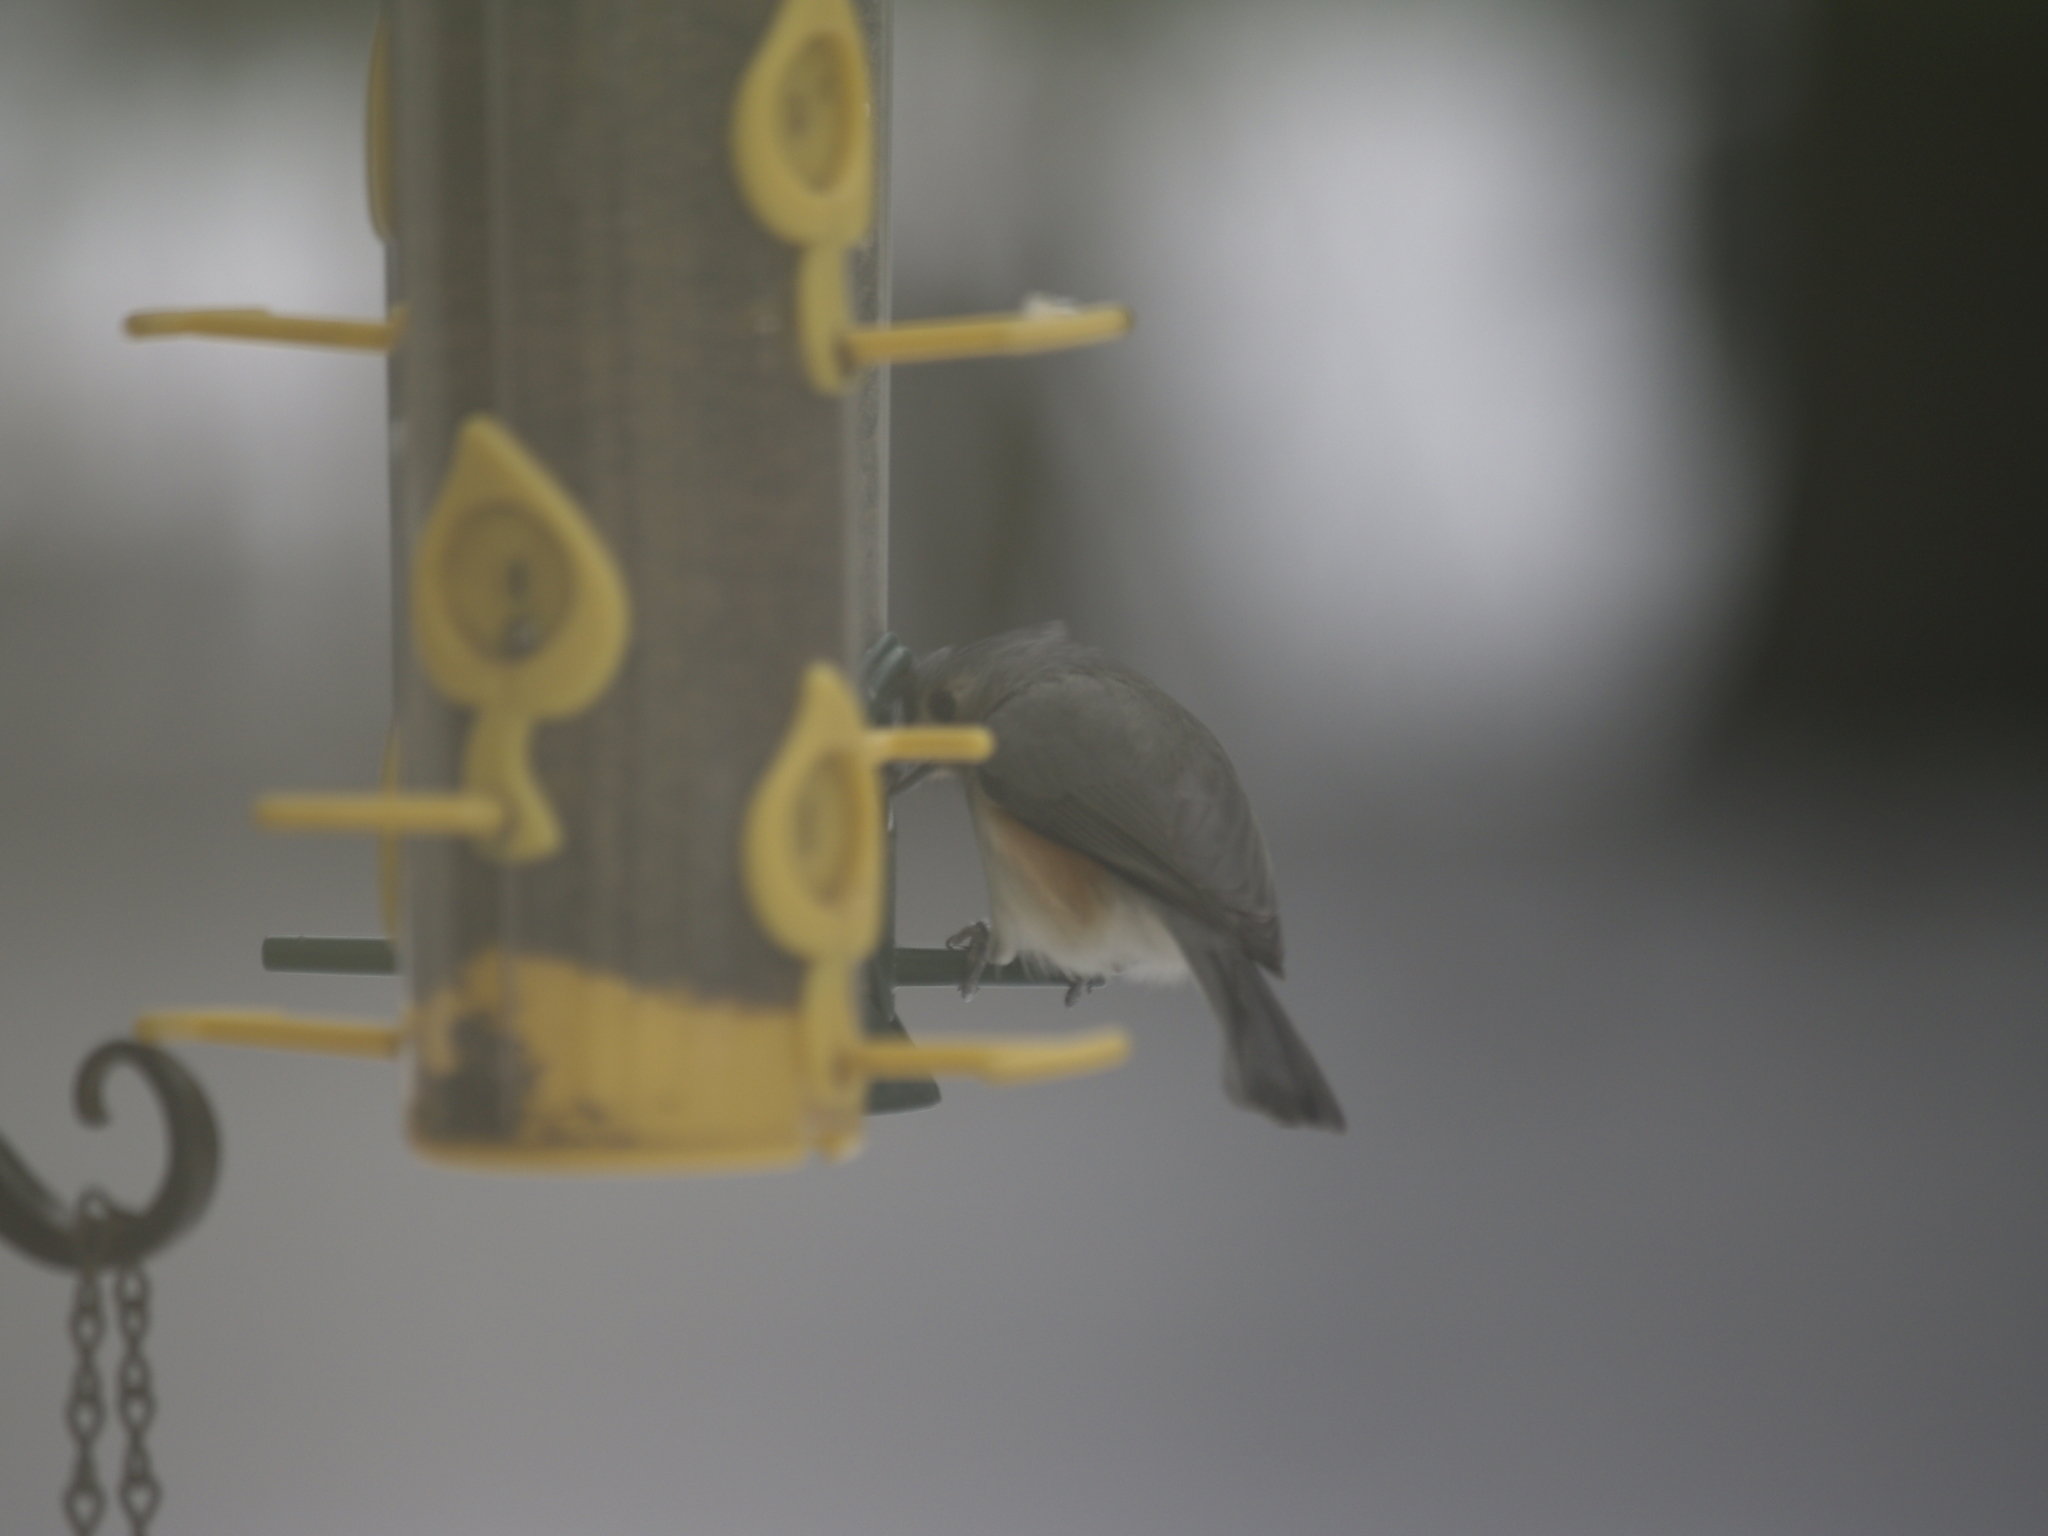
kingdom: Animalia
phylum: Chordata
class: Aves
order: Passeriformes
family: Paridae
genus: Baeolophus
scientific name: Baeolophus bicolor
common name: Tufted titmouse
